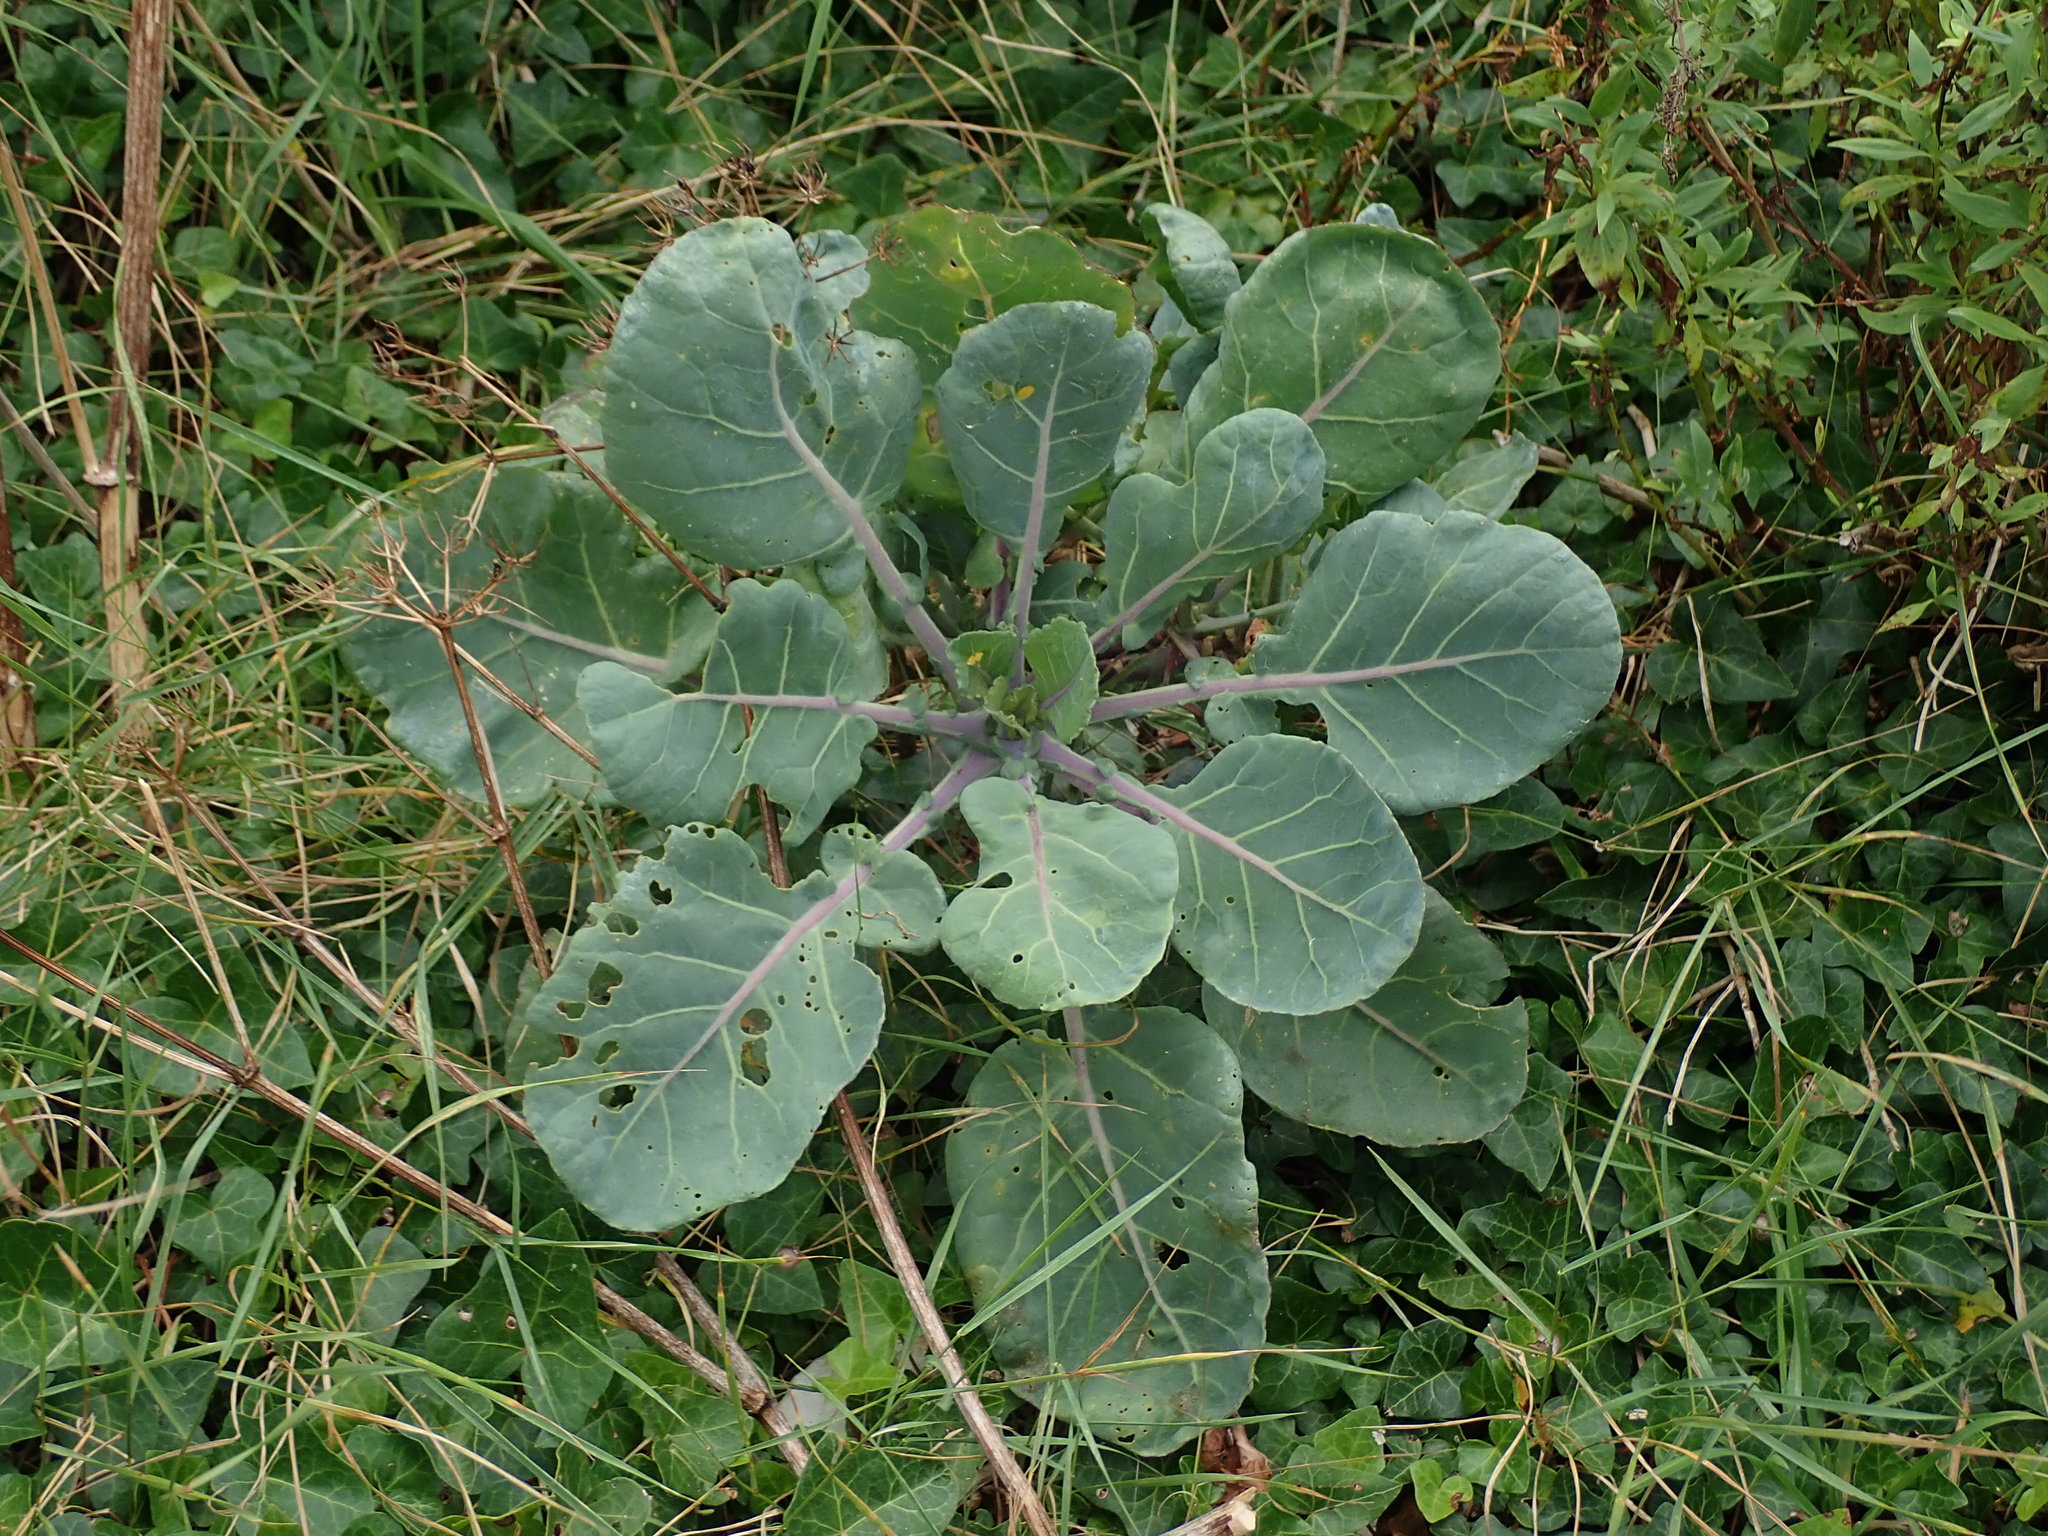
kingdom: Plantae
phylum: Tracheophyta
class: Magnoliopsida
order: Brassicales
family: Brassicaceae
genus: Brassica
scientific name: Brassica oleracea
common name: Cabbage
